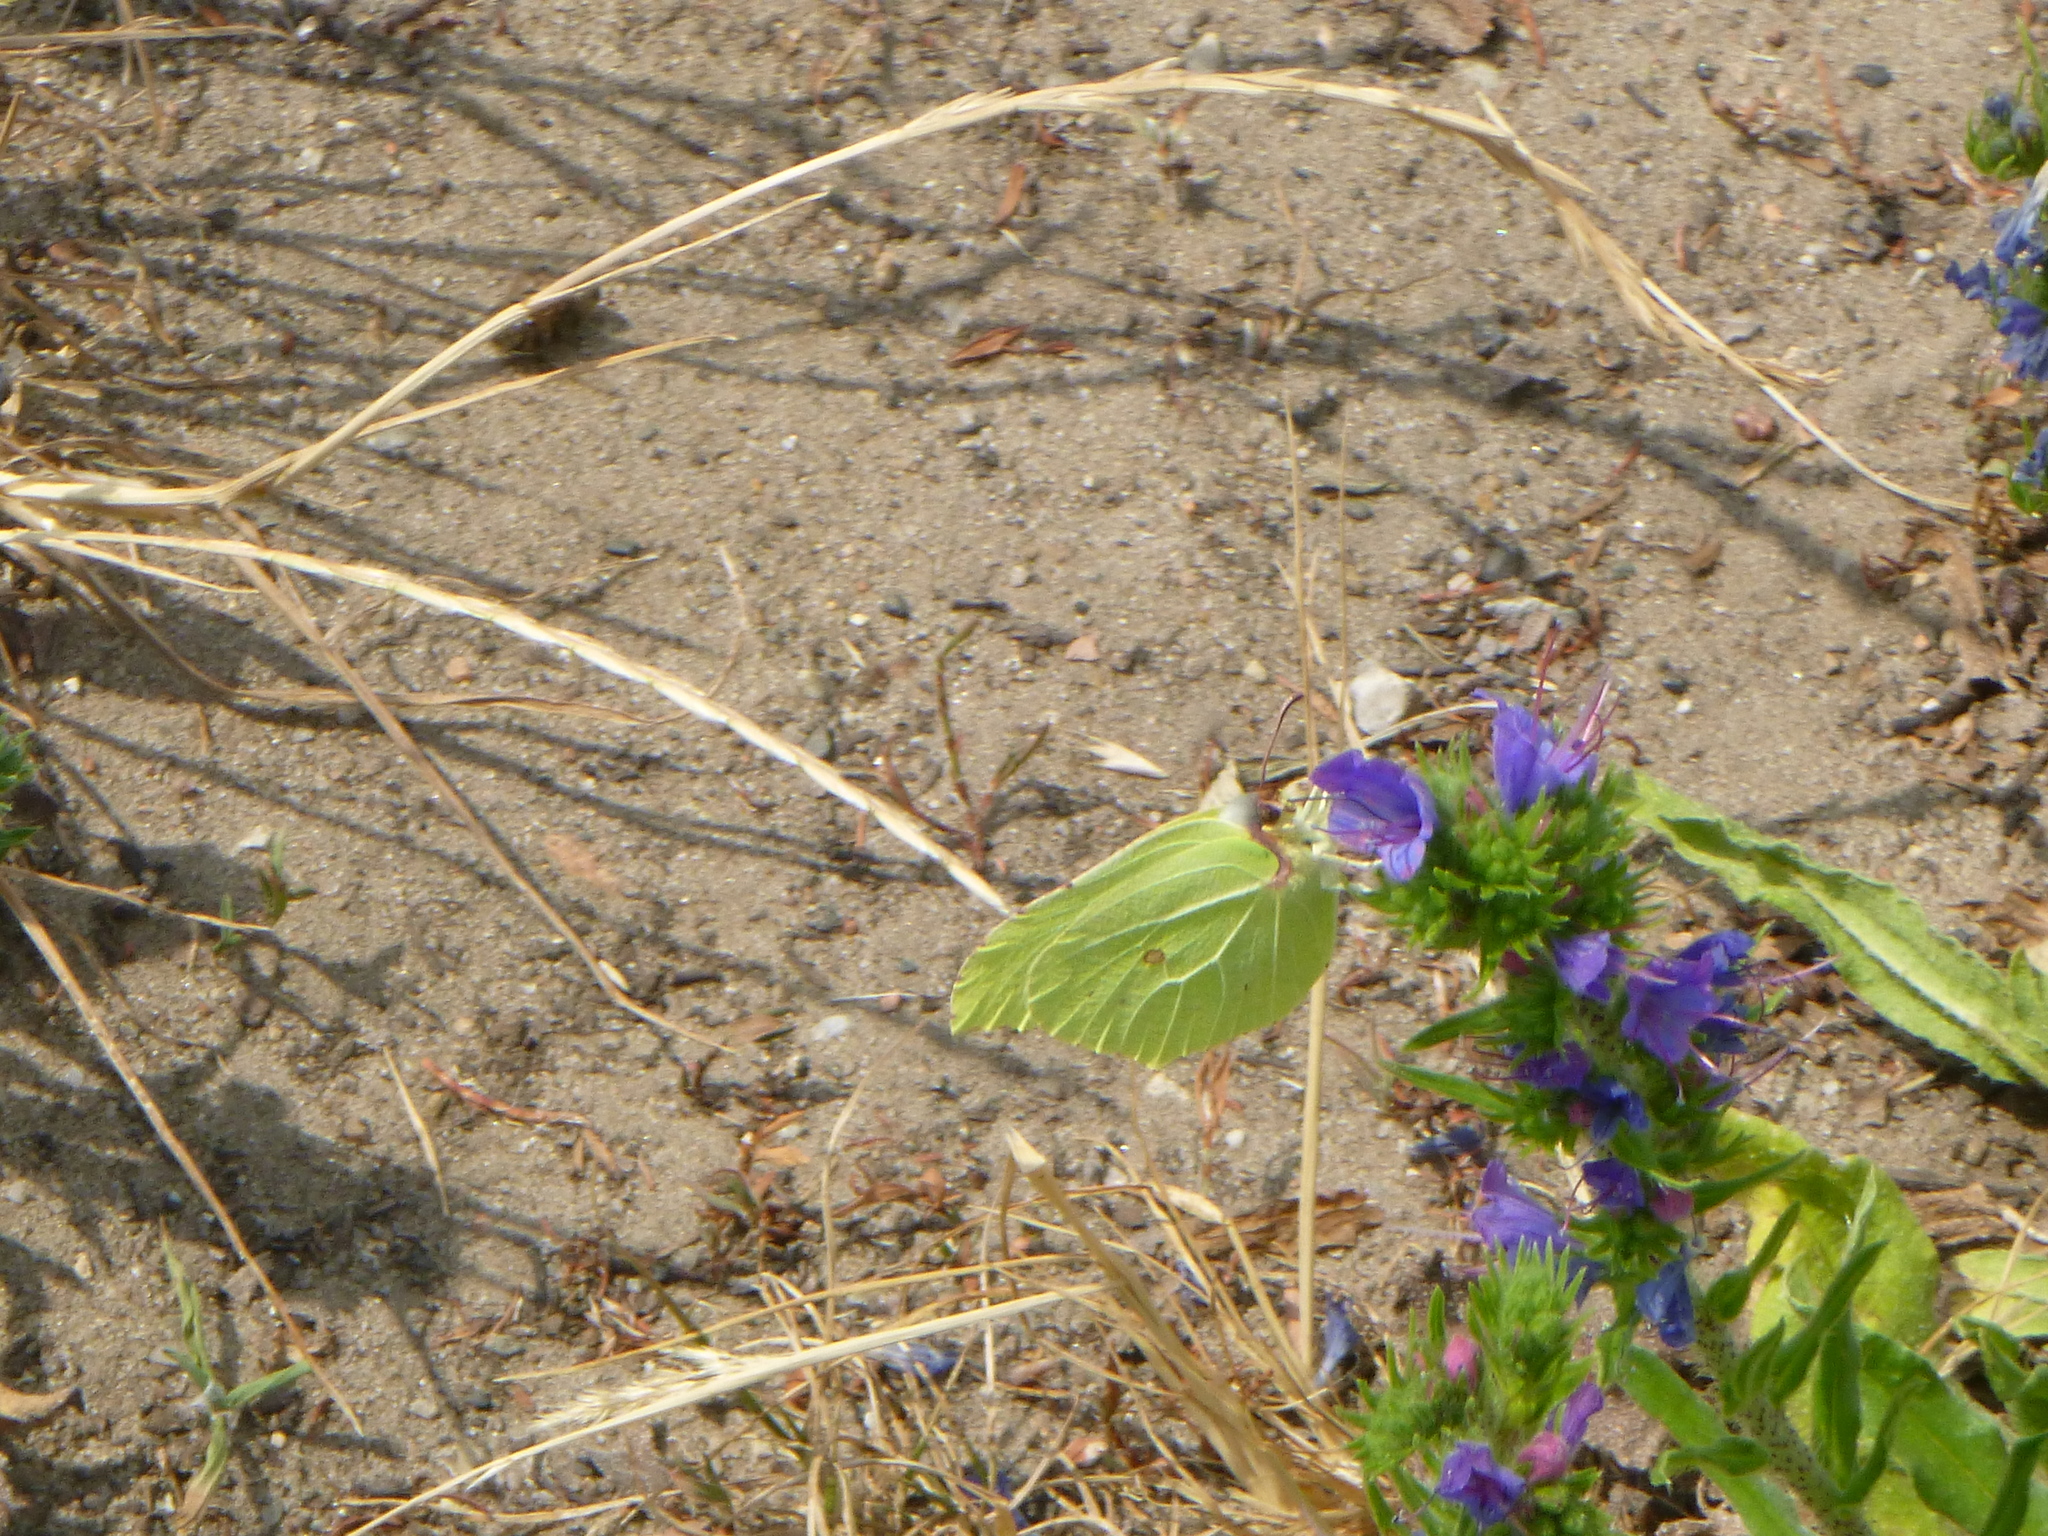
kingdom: Animalia
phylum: Arthropoda
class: Insecta
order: Lepidoptera
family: Pieridae
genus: Gonepteryx
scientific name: Gonepteryx rhamni
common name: Brimstone
